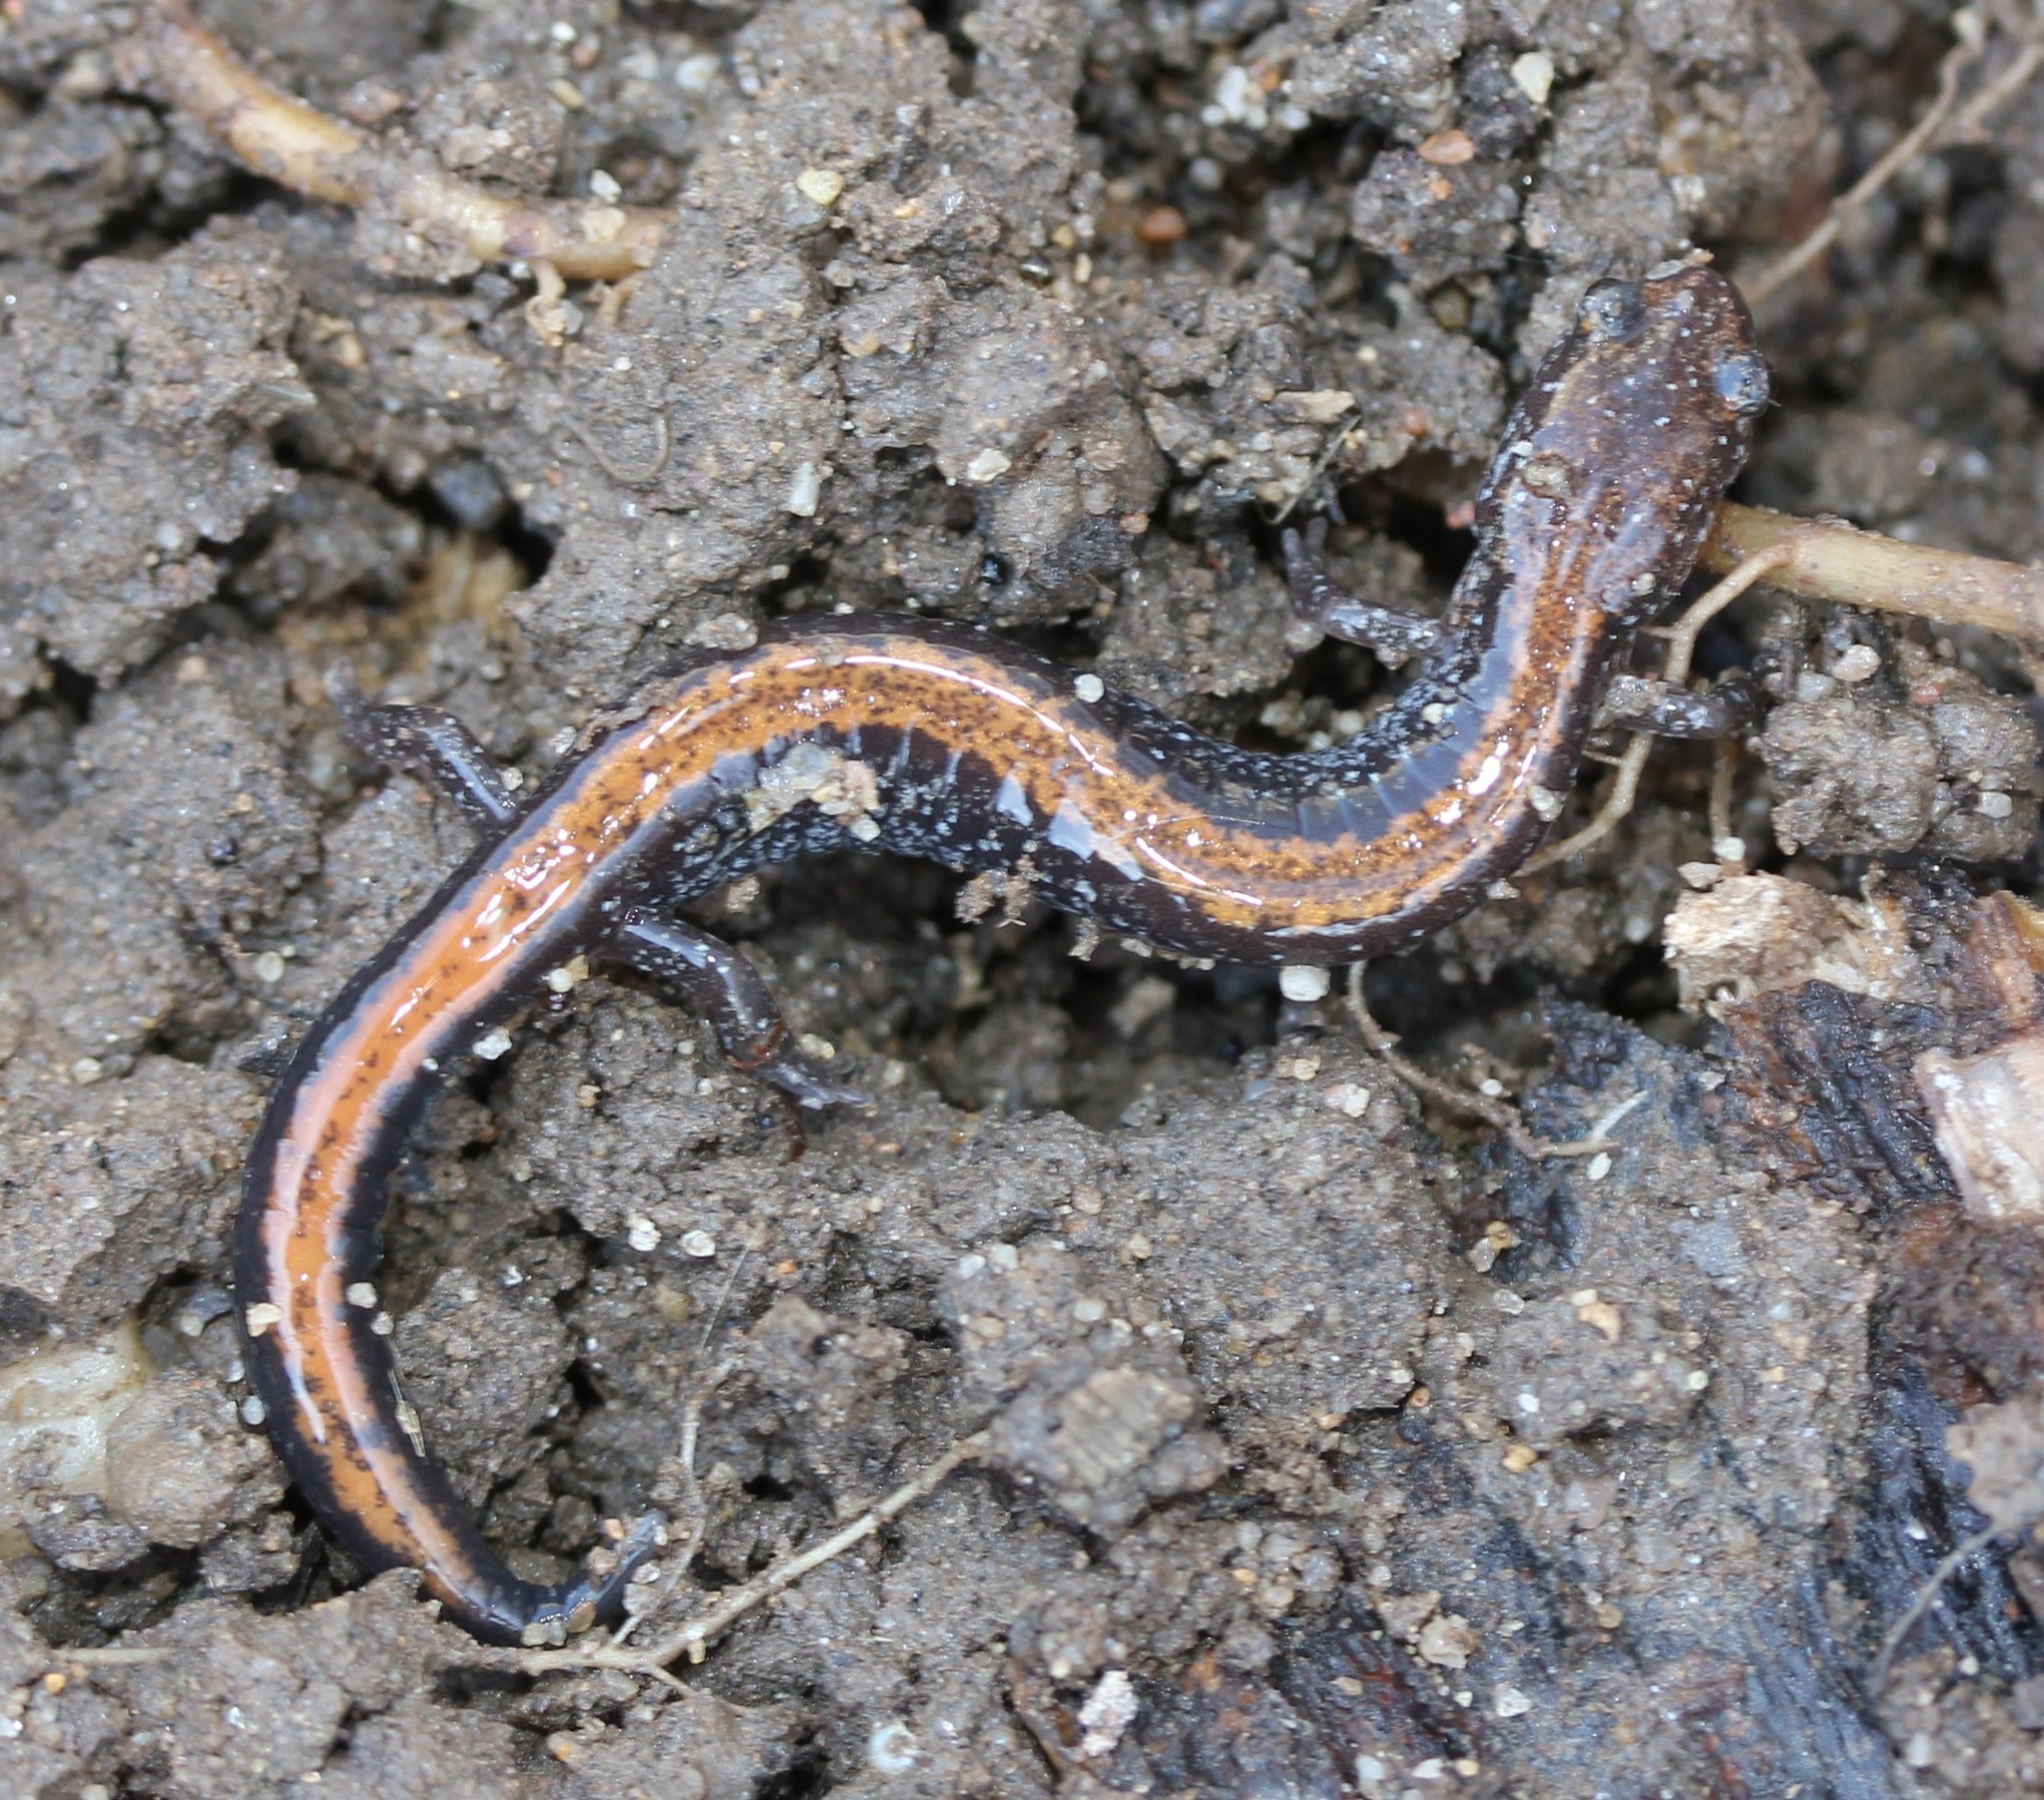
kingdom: Animalia
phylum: Chordata
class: Amphibia
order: Caudata
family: Plethodontidae
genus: Plethodon
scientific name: Plethodon cinereus
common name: Redback salamander
